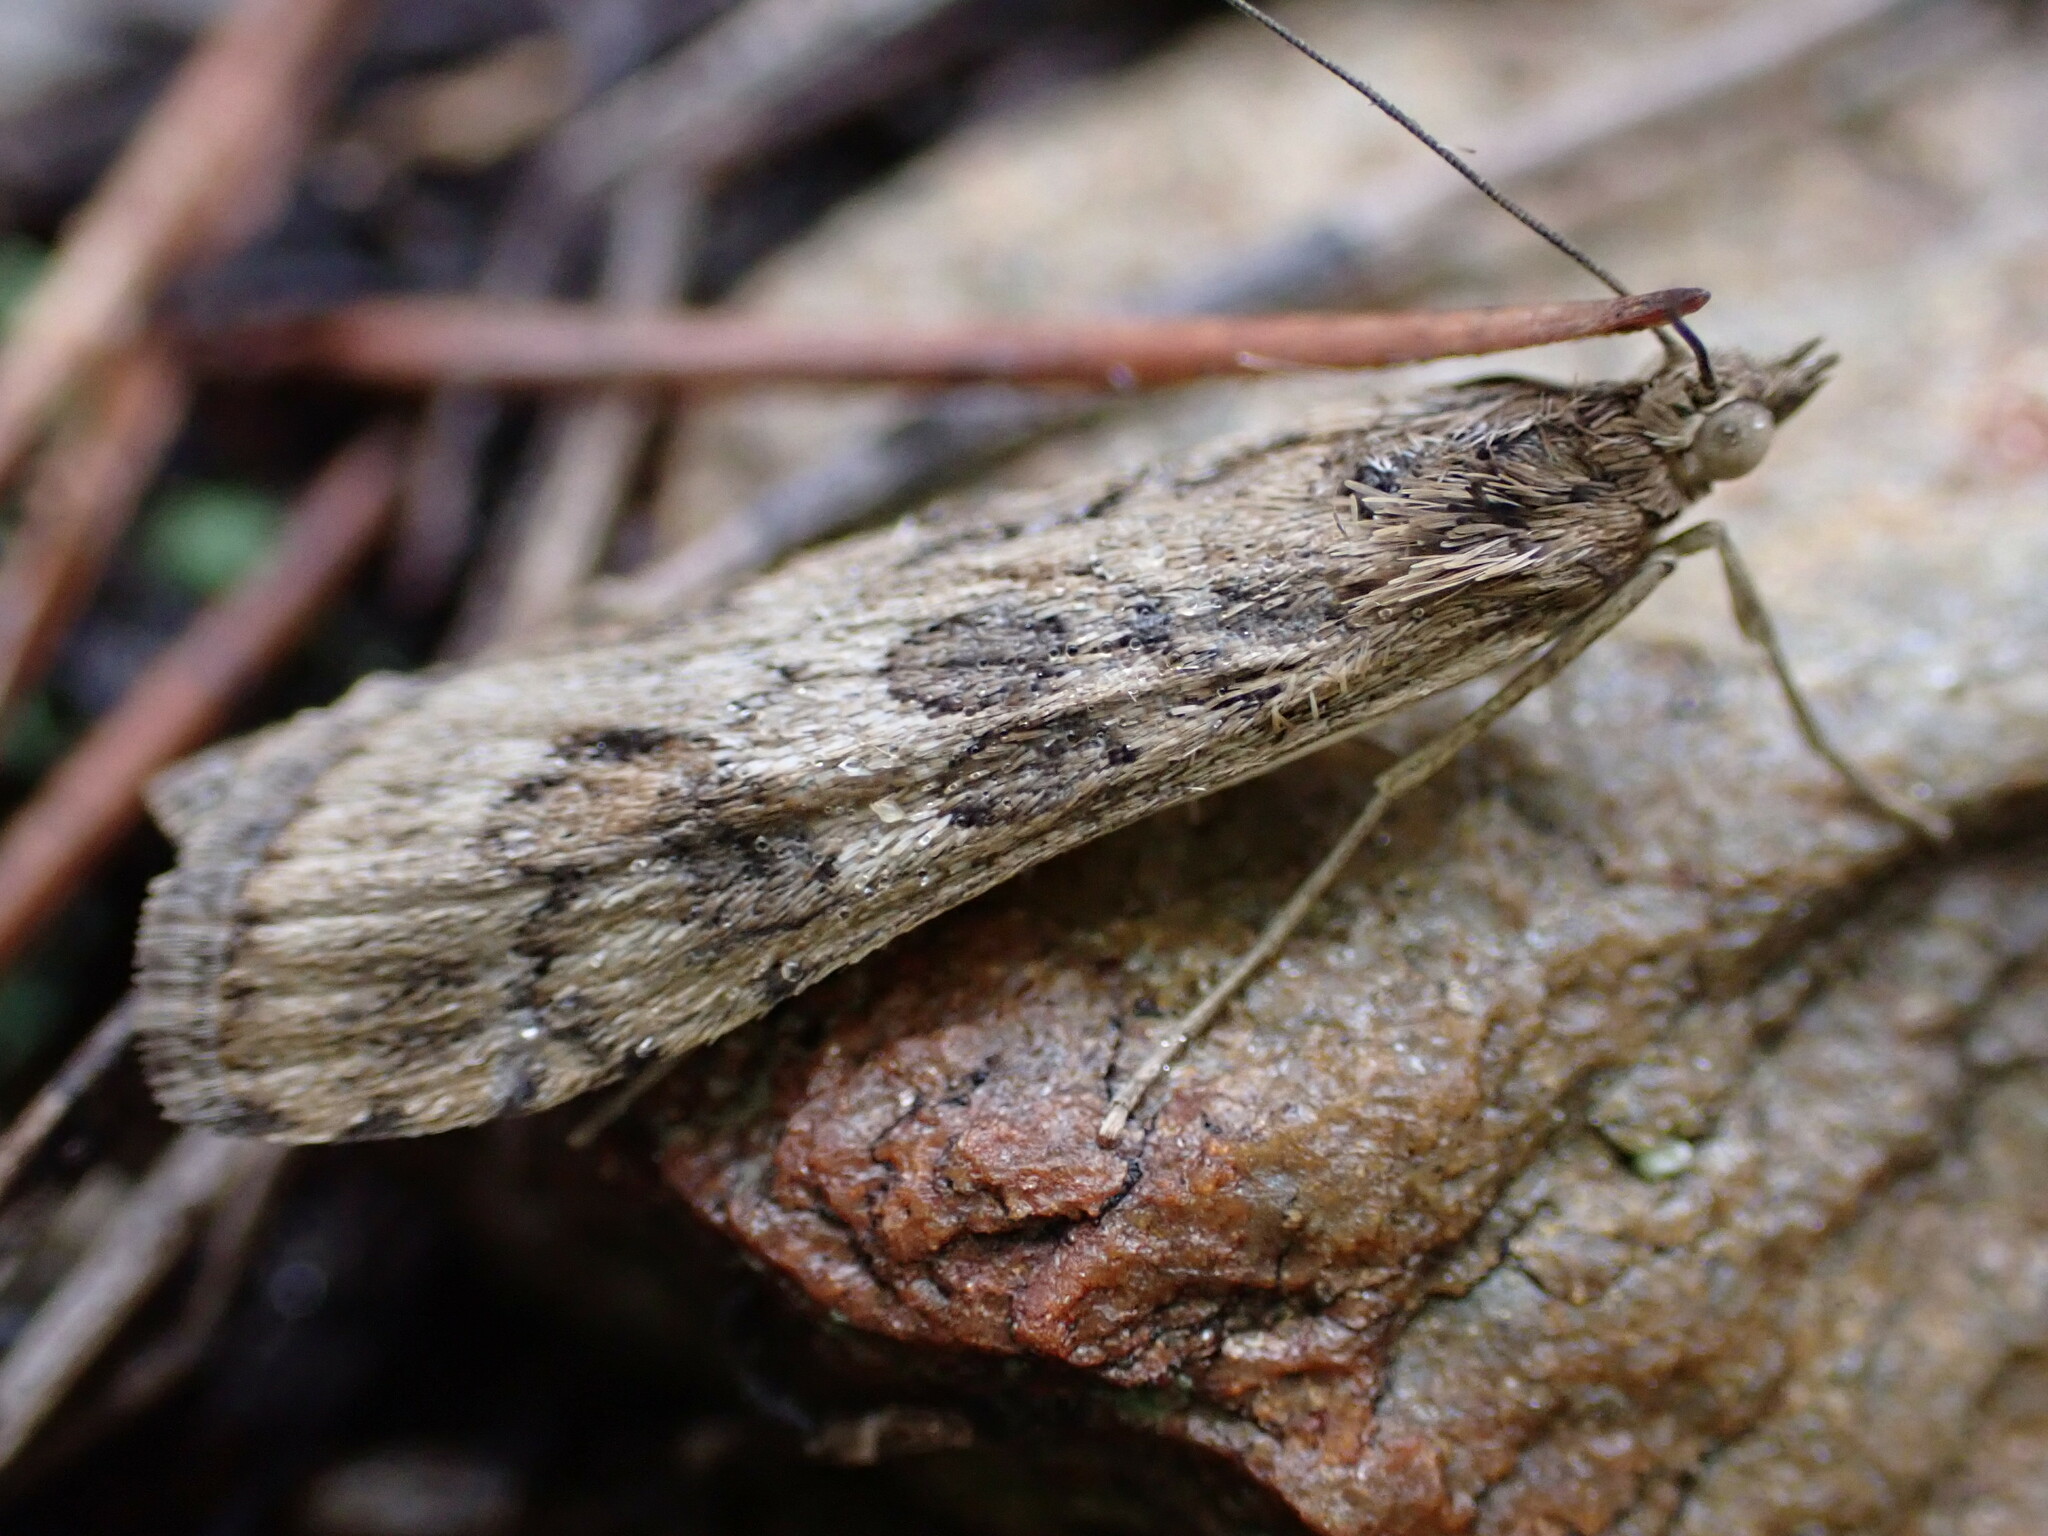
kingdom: Animalia
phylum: Arthropoda
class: Insecta
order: Lepidoptera
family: Crambidae
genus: Nomophila
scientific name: Nomophila noctuella
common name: Rush veneer
